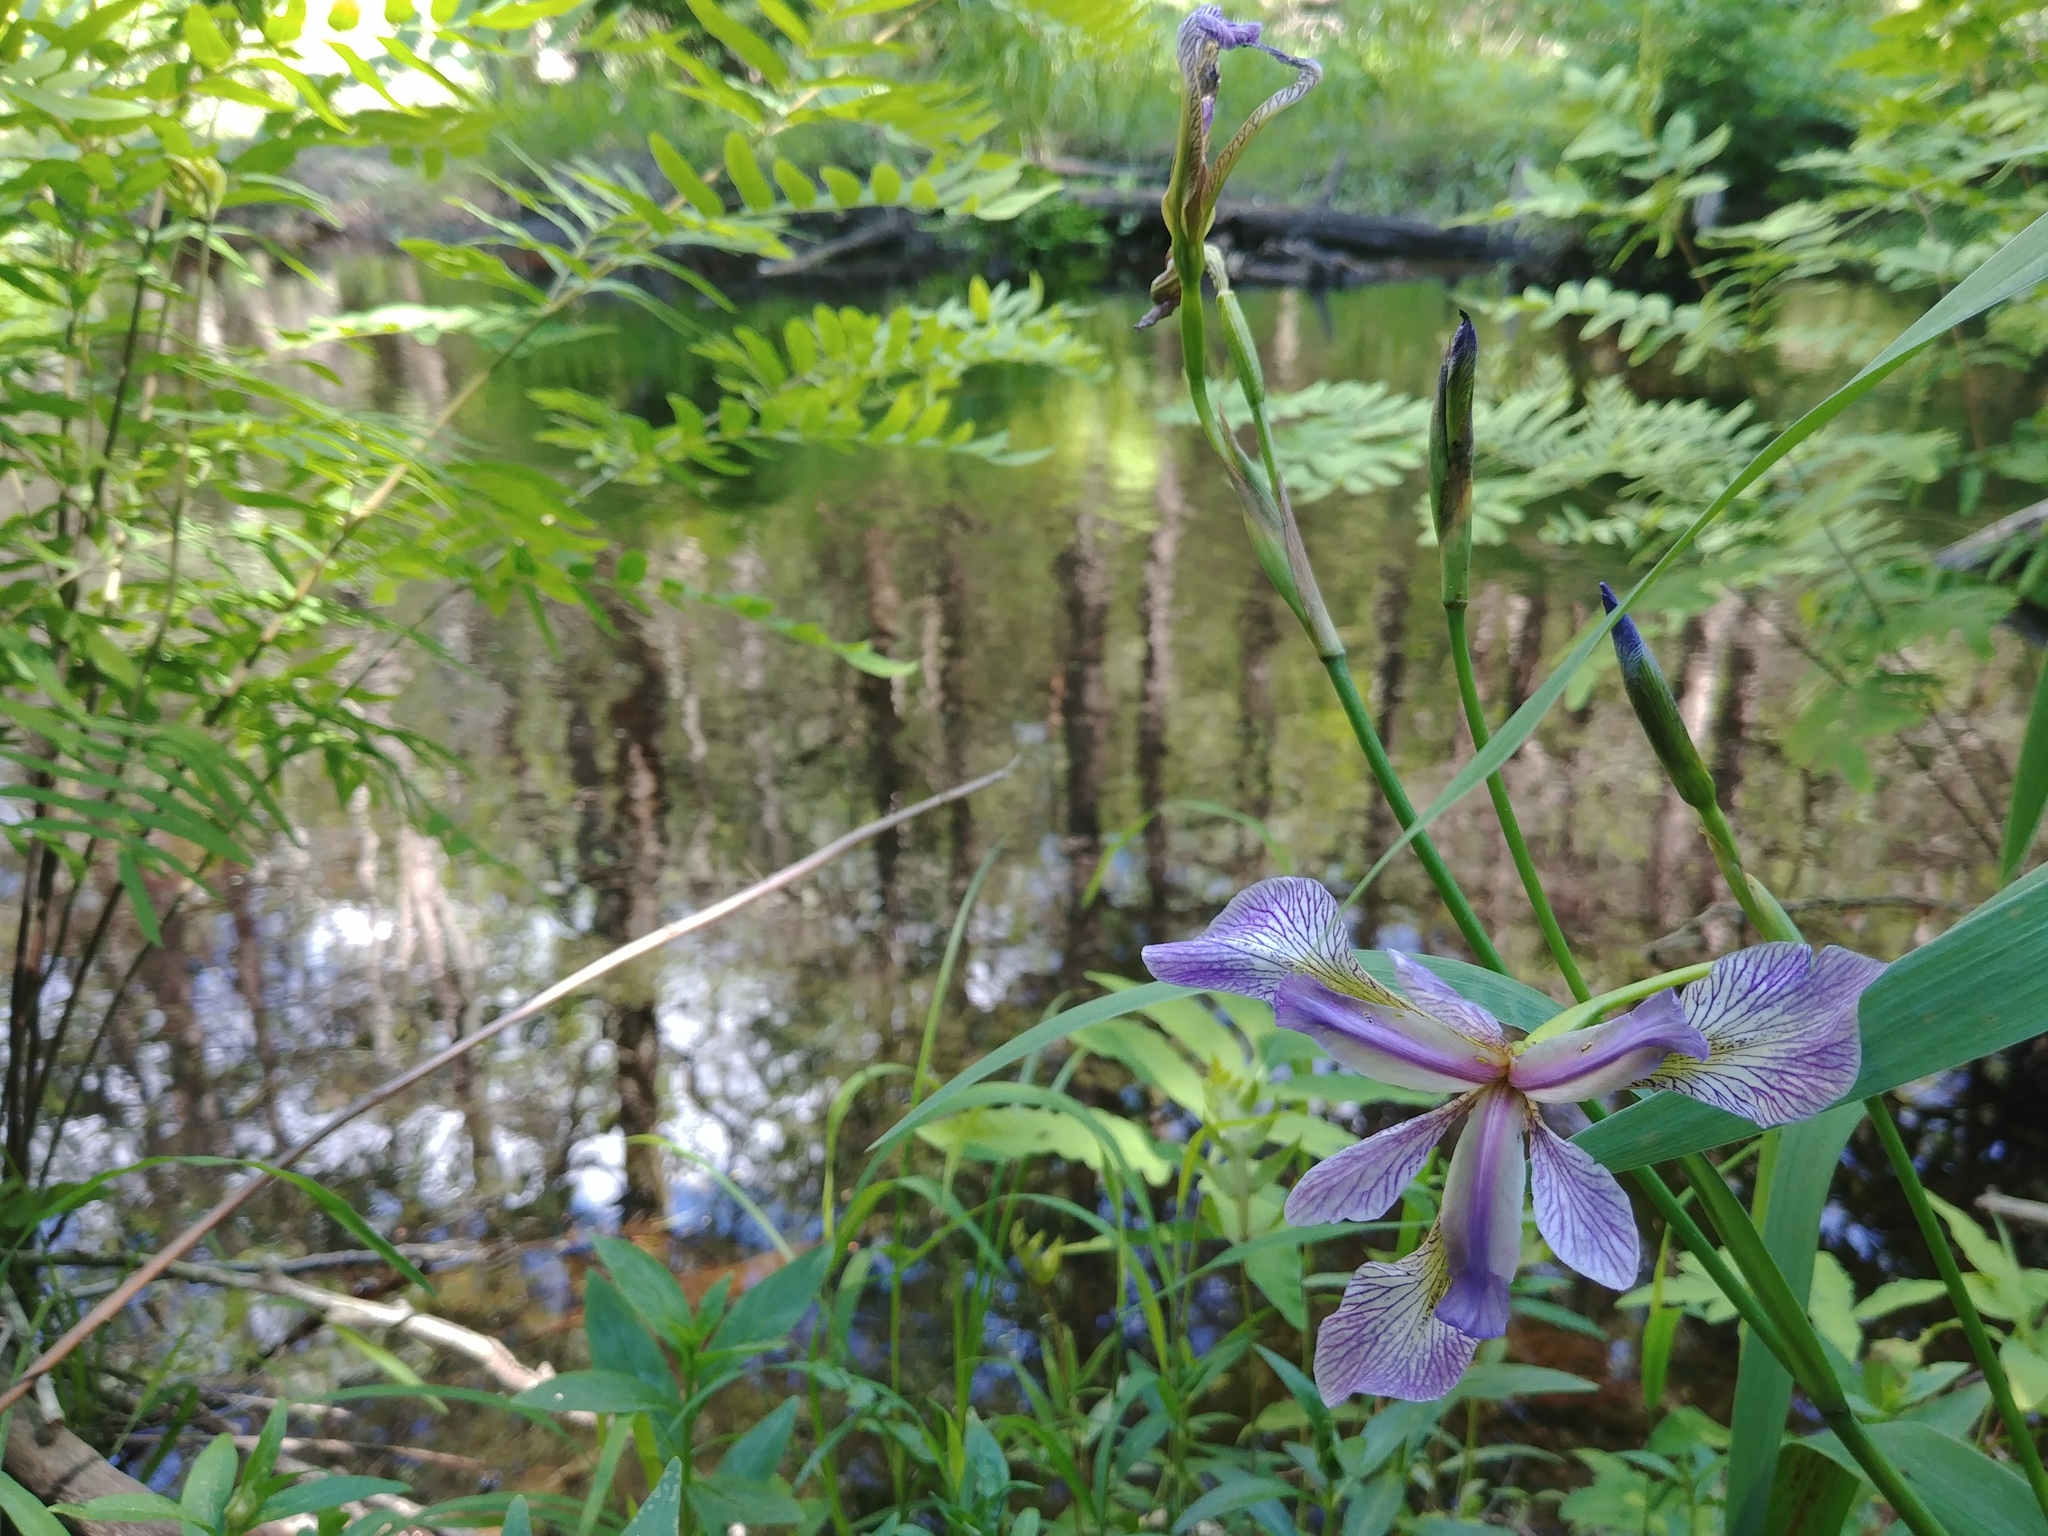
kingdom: Plantae
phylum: Tracheophyta
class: Liliopsida
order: Asparagales
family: Iridaceae
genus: Iris
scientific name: Iris versicolor
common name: Purple iris
